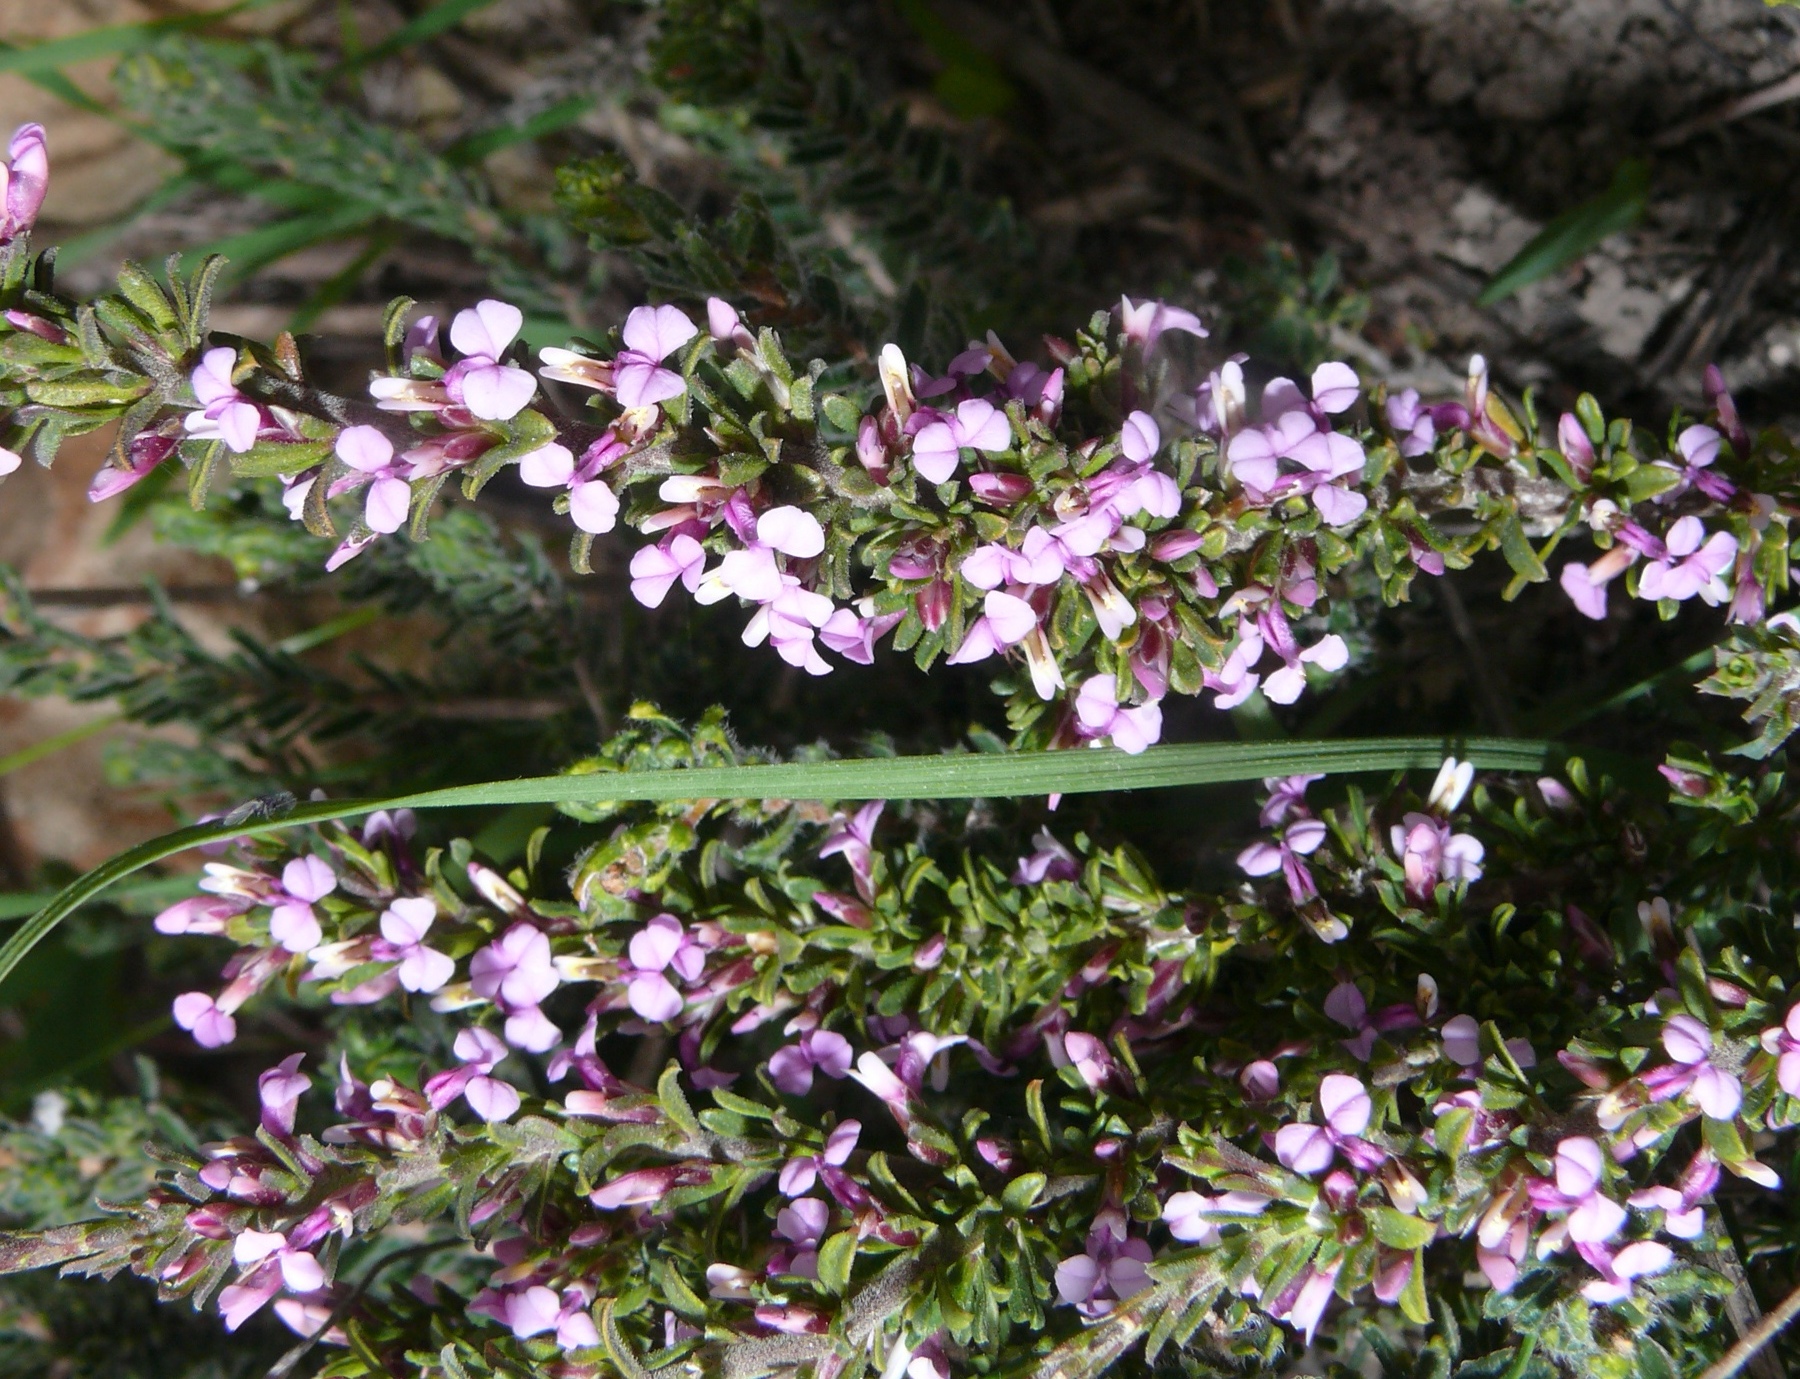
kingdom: Plantae
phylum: Tracheophyta
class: Magnoliopsida
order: Fabales
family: Polygalaceae
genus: Muraltia
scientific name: Muraltia barkerae
